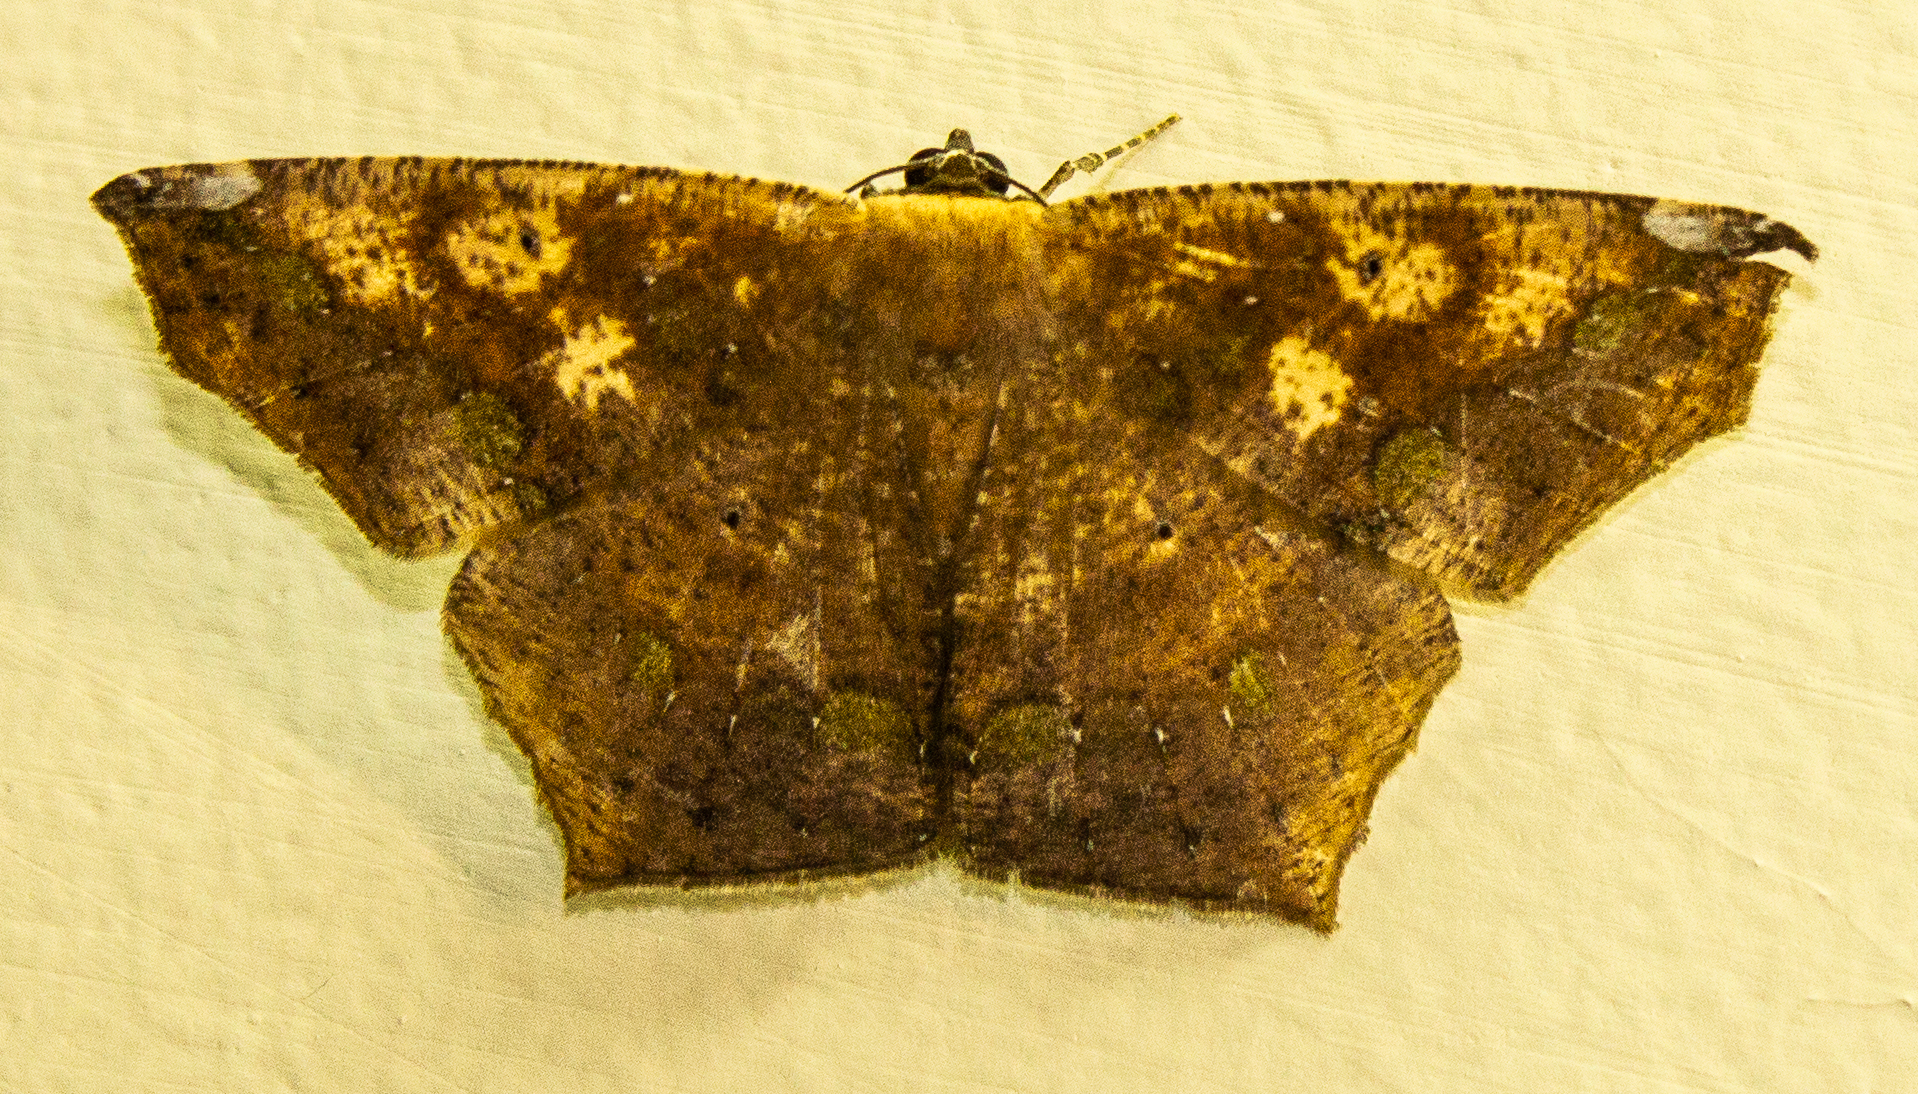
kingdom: Animalia
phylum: Arthropoda
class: Insecta
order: Lepidoptera
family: Geometridae
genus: Paragonia
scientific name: Paragonia cruraria
